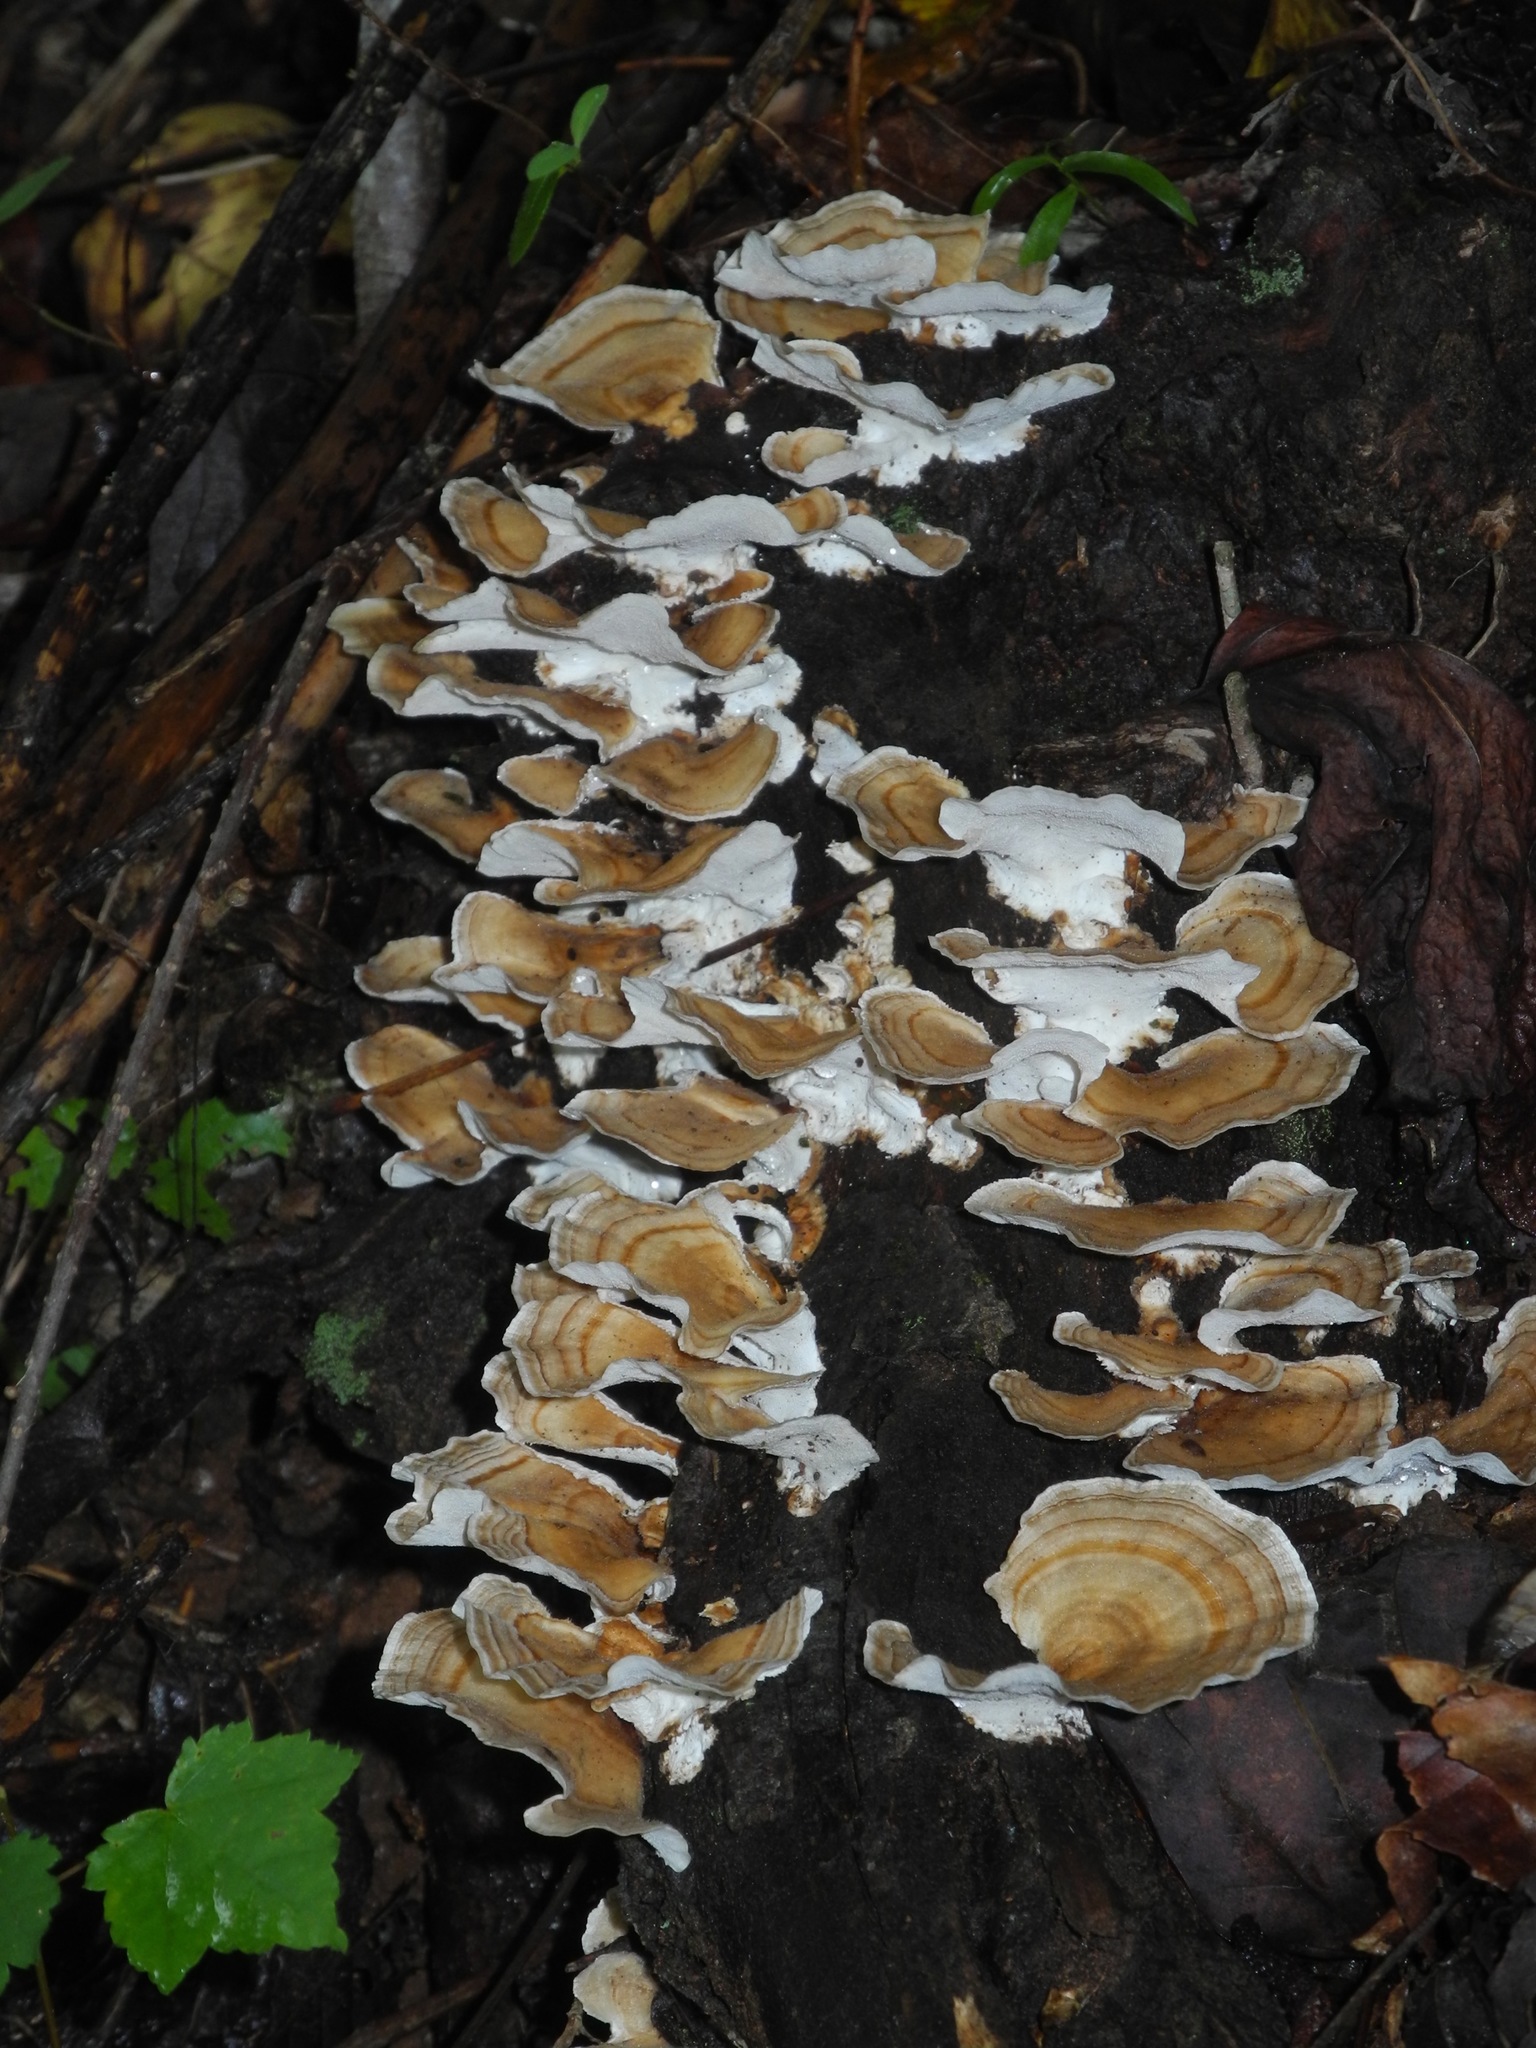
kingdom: Fungi
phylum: Basidiomycota
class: Agaricomycetes
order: Polyporales
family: Polyporaceae
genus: Trametes
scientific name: Trametes ochracea
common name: Ochre bracket
